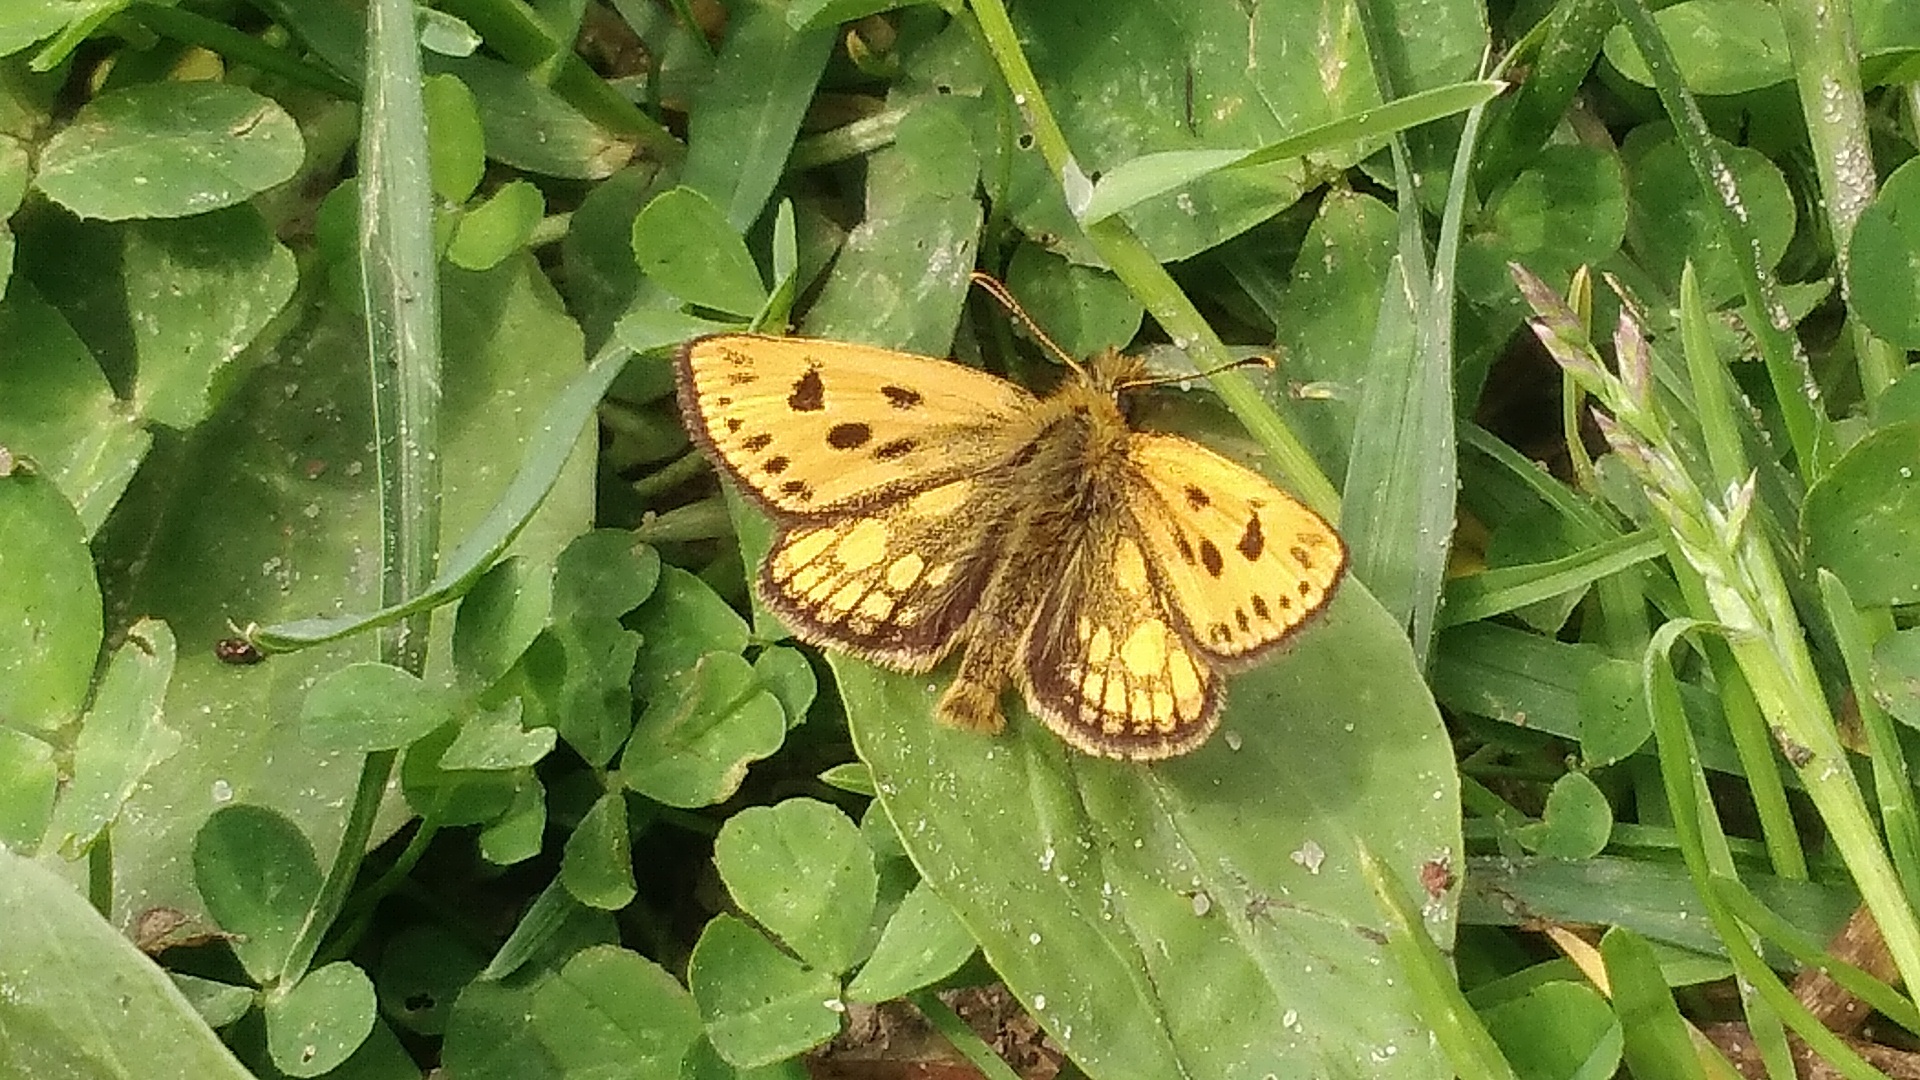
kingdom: Animalia
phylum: Arthropoda
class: Insecta
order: Lepidoptera
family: Hesperiidae
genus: Carterocephalus
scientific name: Carterocephalus silvicola
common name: Northern chequered skipper
